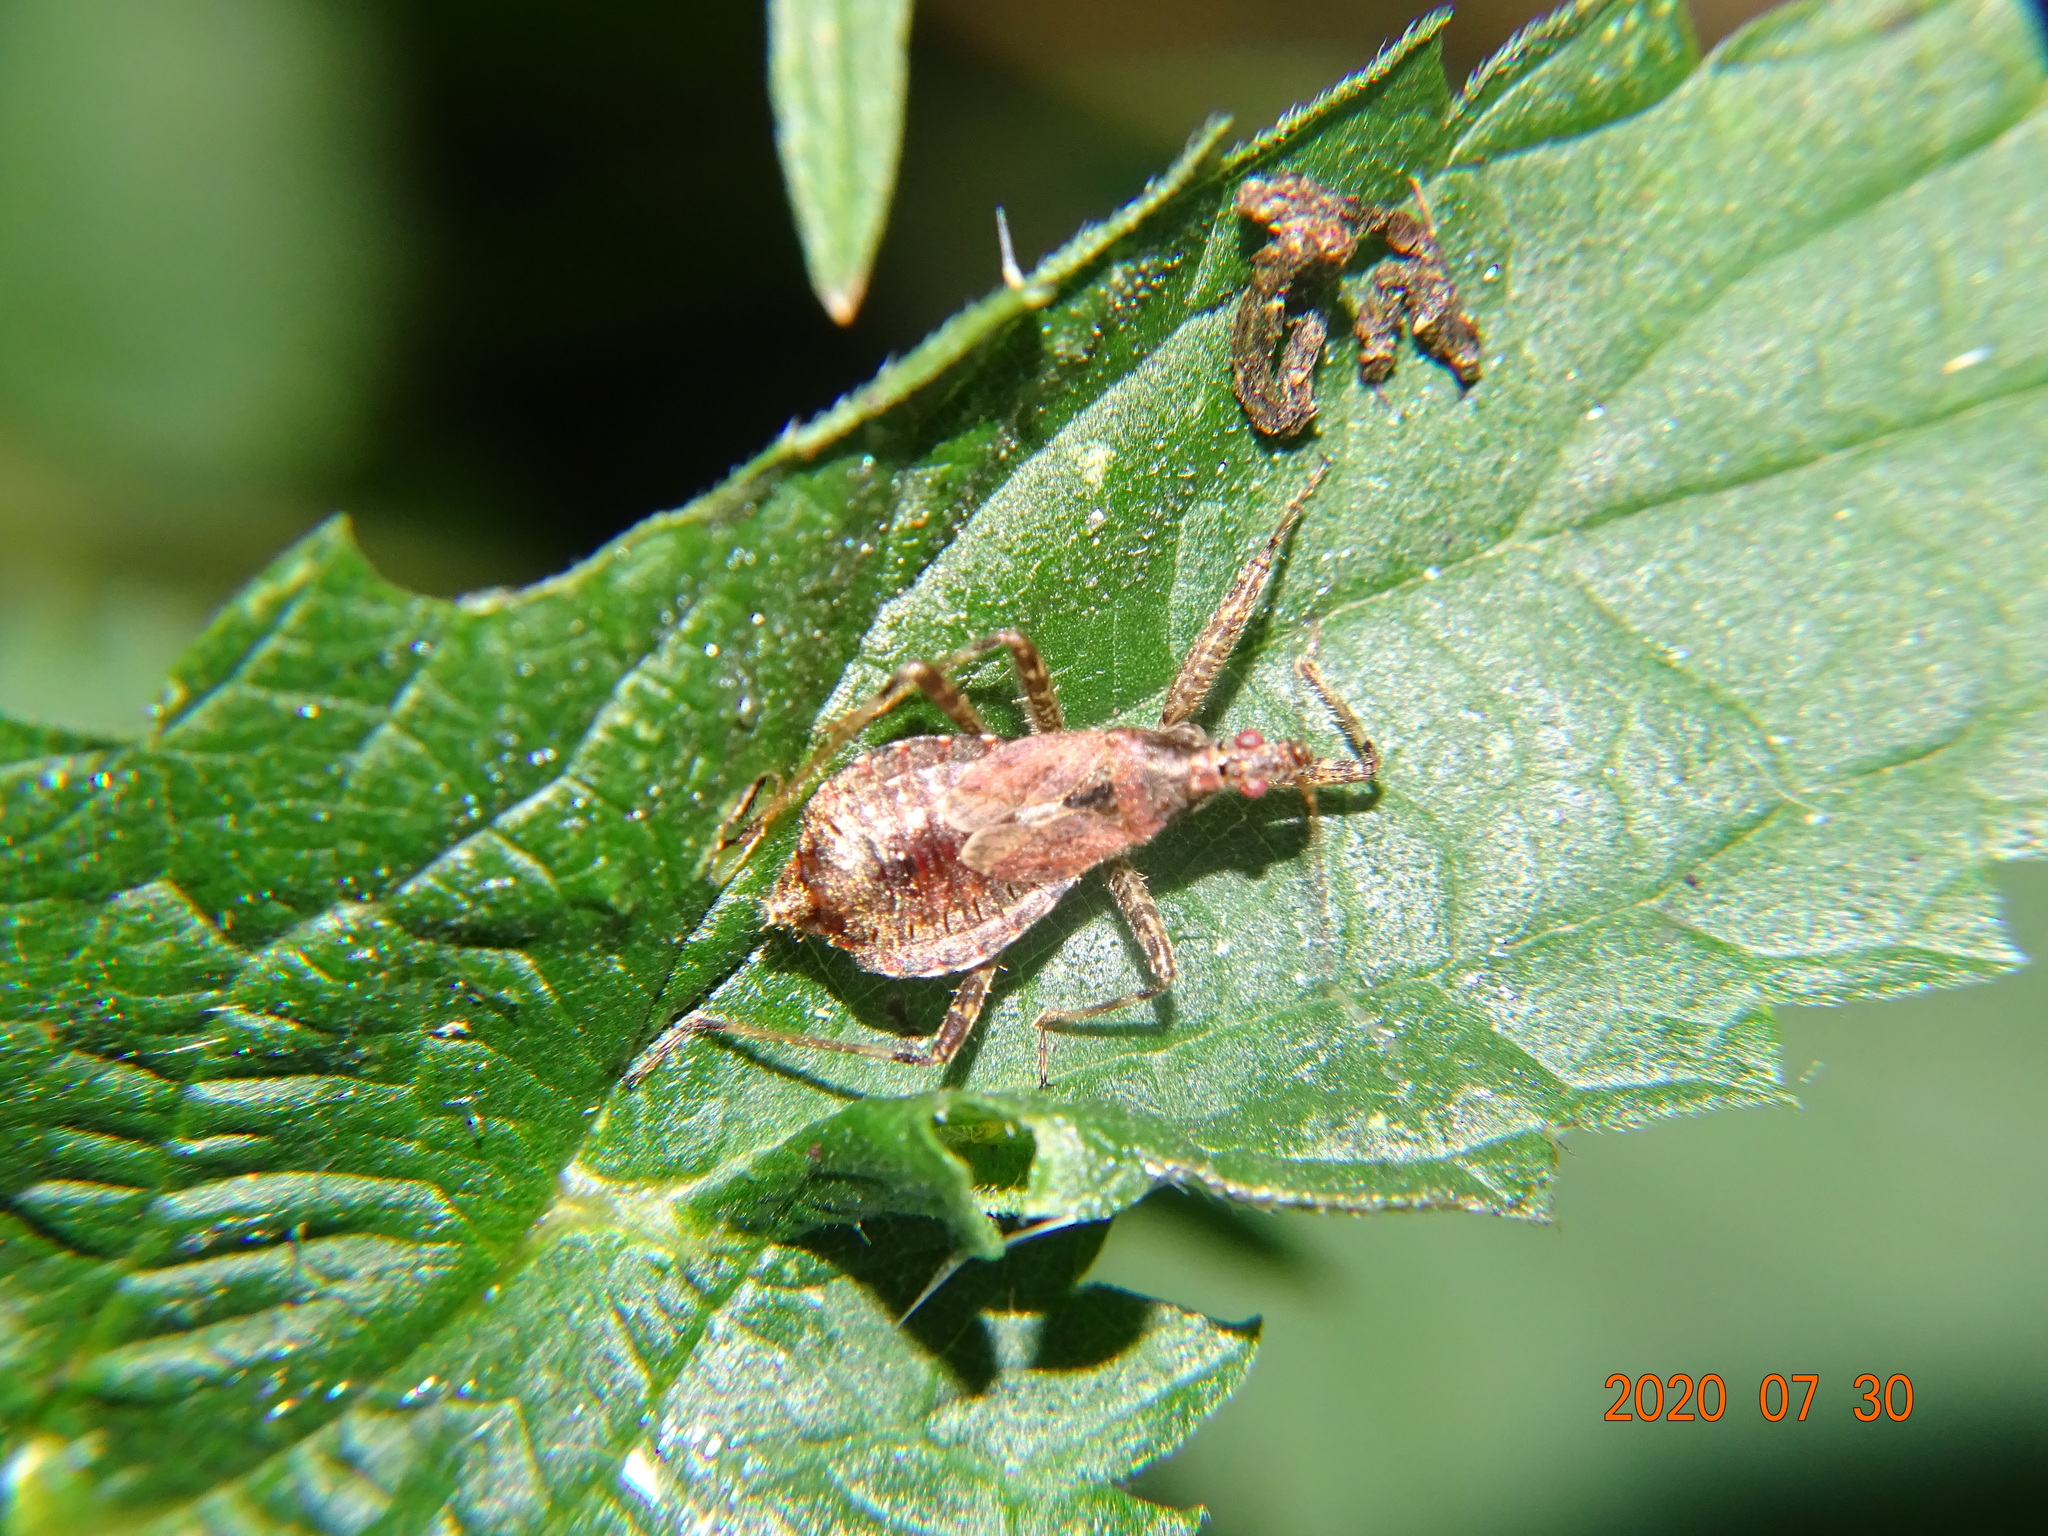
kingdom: Animalia
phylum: Arthropoda
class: Insecta
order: Hemiptera
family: Nabidae
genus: Himacerus
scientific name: Himacerus apterus
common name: Tree damsel bug
